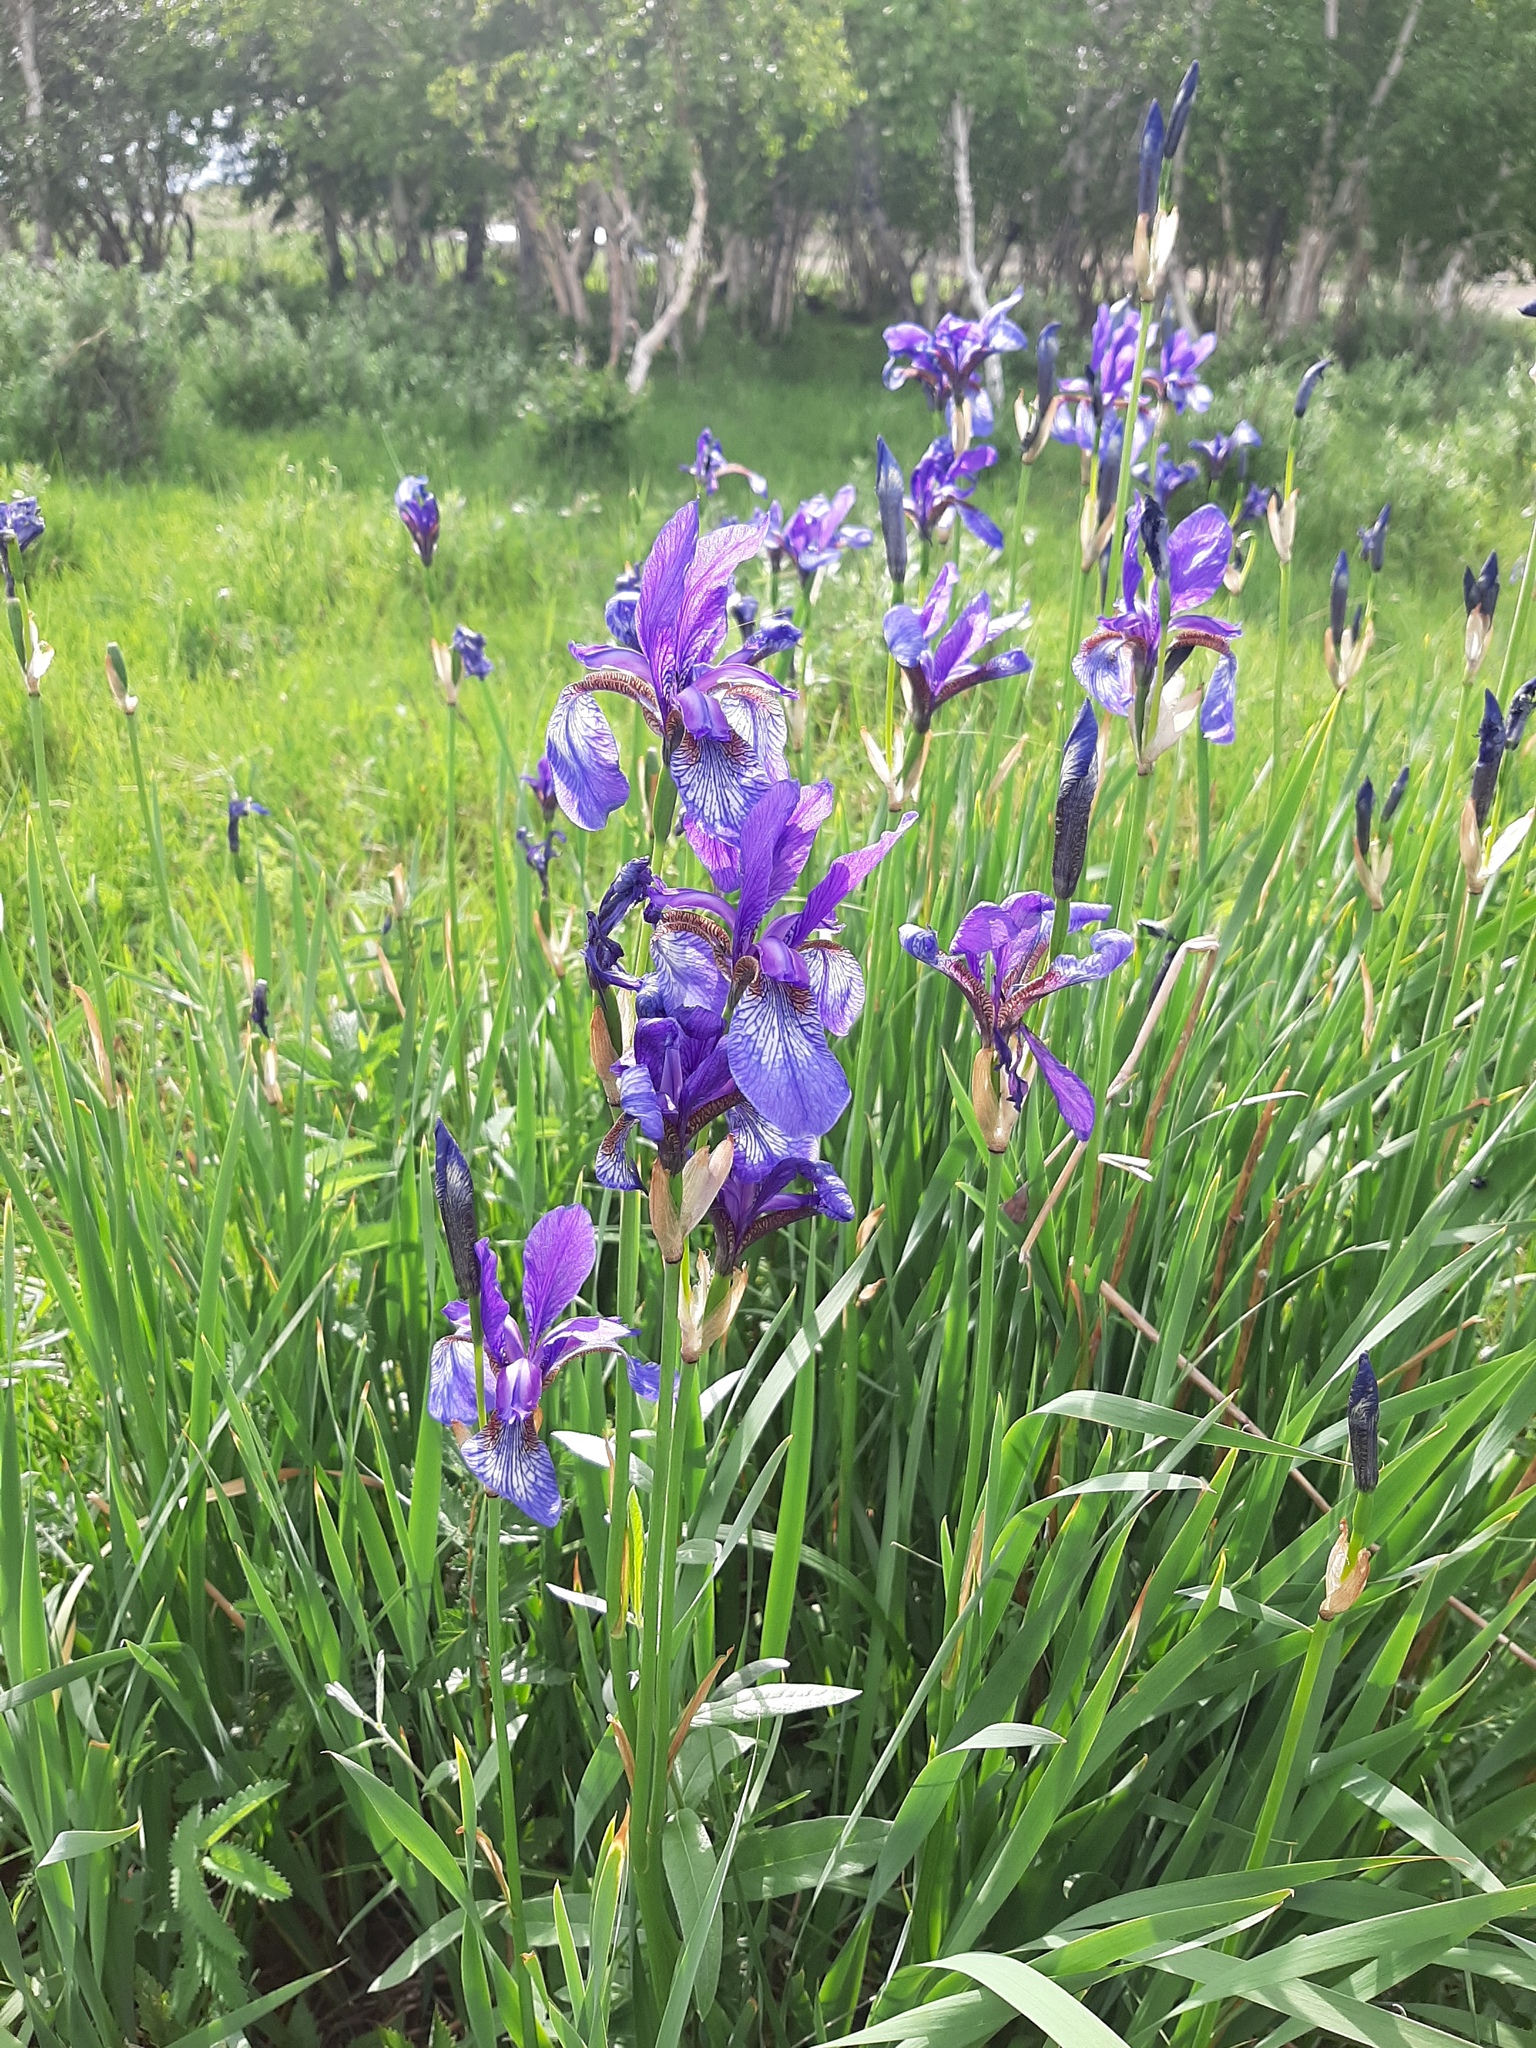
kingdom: Plantae
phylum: Tracheophyta
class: Liliopsida
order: Asparagales
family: Iridaceae
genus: Iris
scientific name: Iris sibirica
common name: Siberian iris
